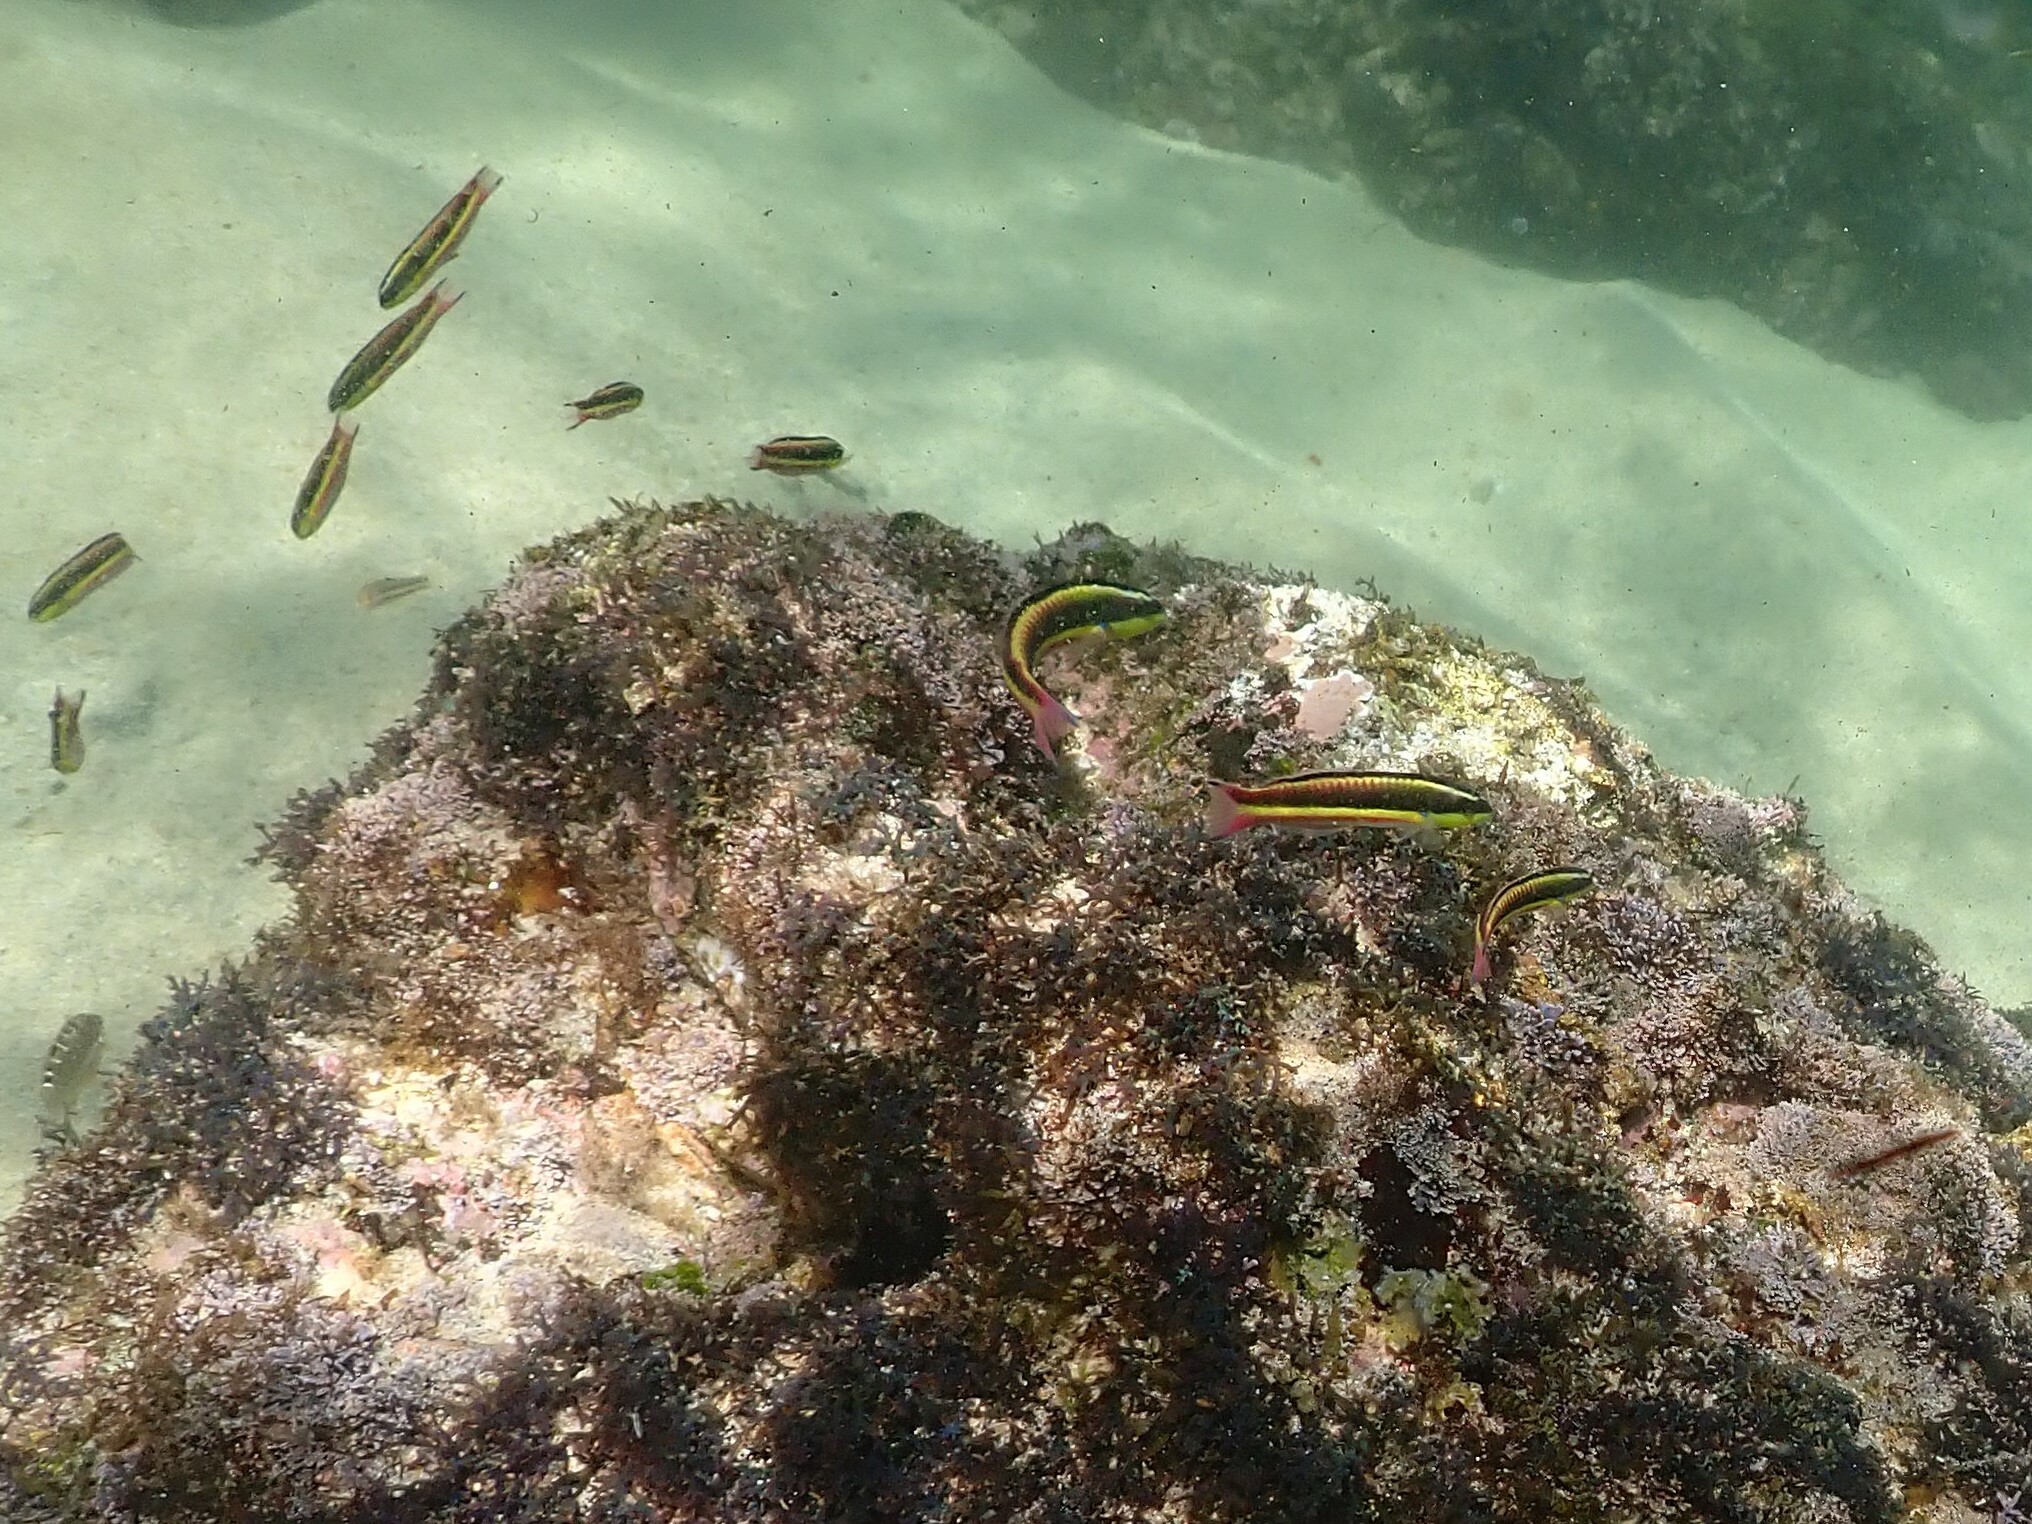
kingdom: Animalia
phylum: Chordata
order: Perciformes
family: Labridae
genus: Thalassoma
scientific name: Thalassoma lucasanum
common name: Cortez rainbow wrasse
